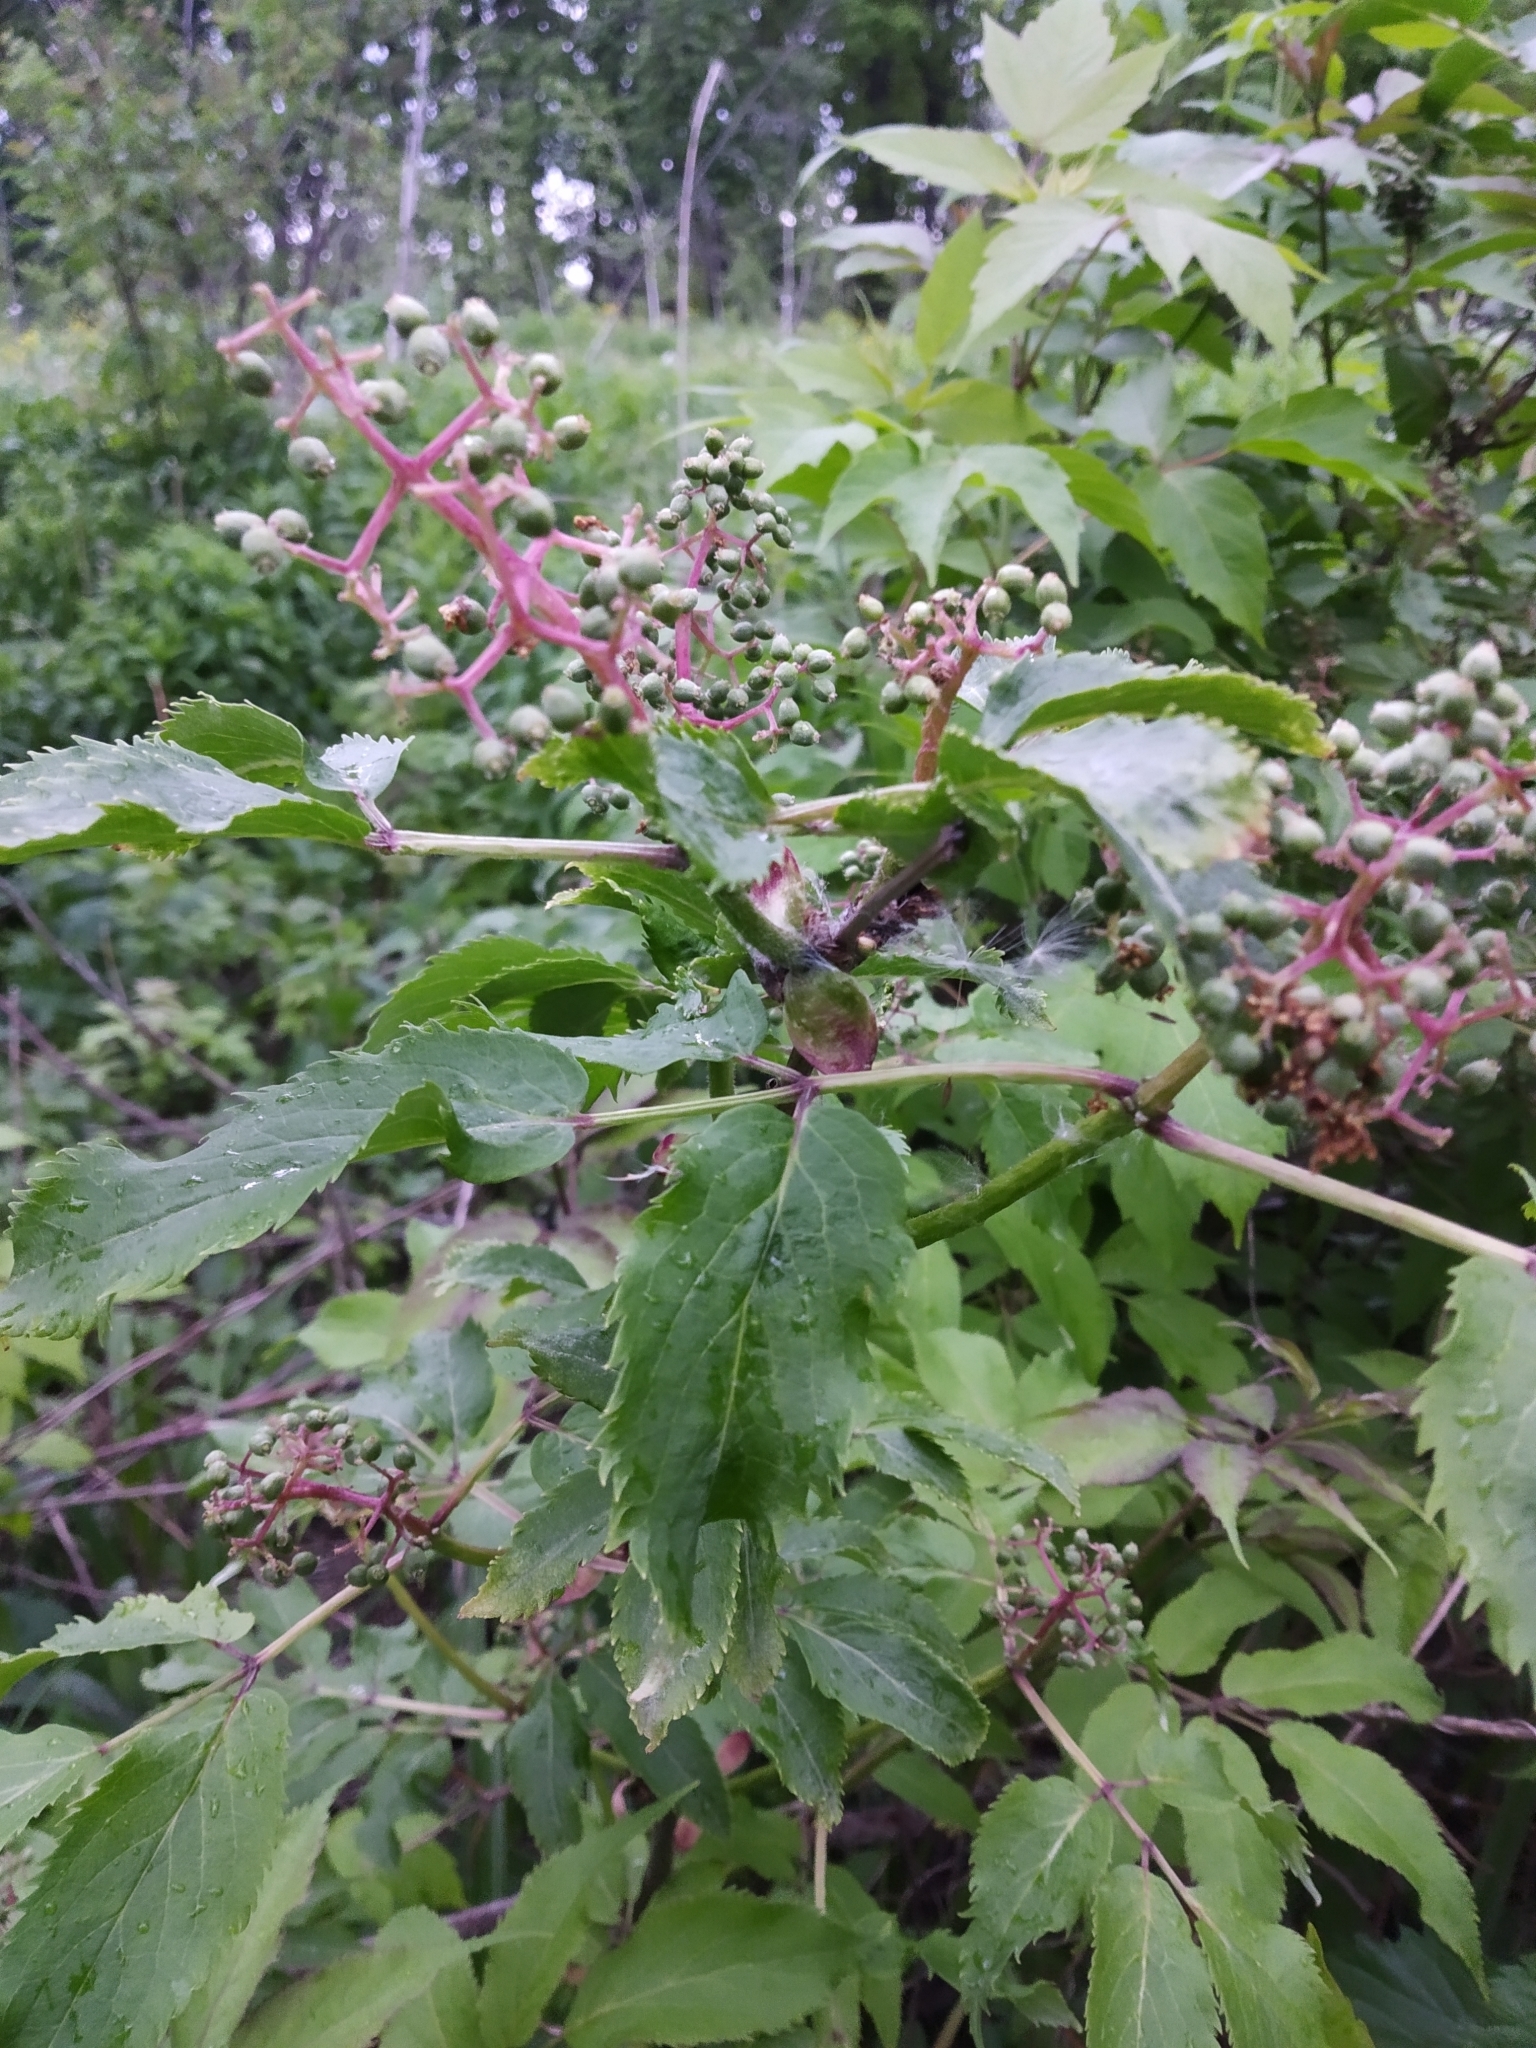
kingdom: Plantae
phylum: Tracheophyta
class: Magnoliopsida
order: Dipsacales
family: Viburnaceae
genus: Sambucus
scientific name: Sambucus racemosa
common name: Red-berried elder
